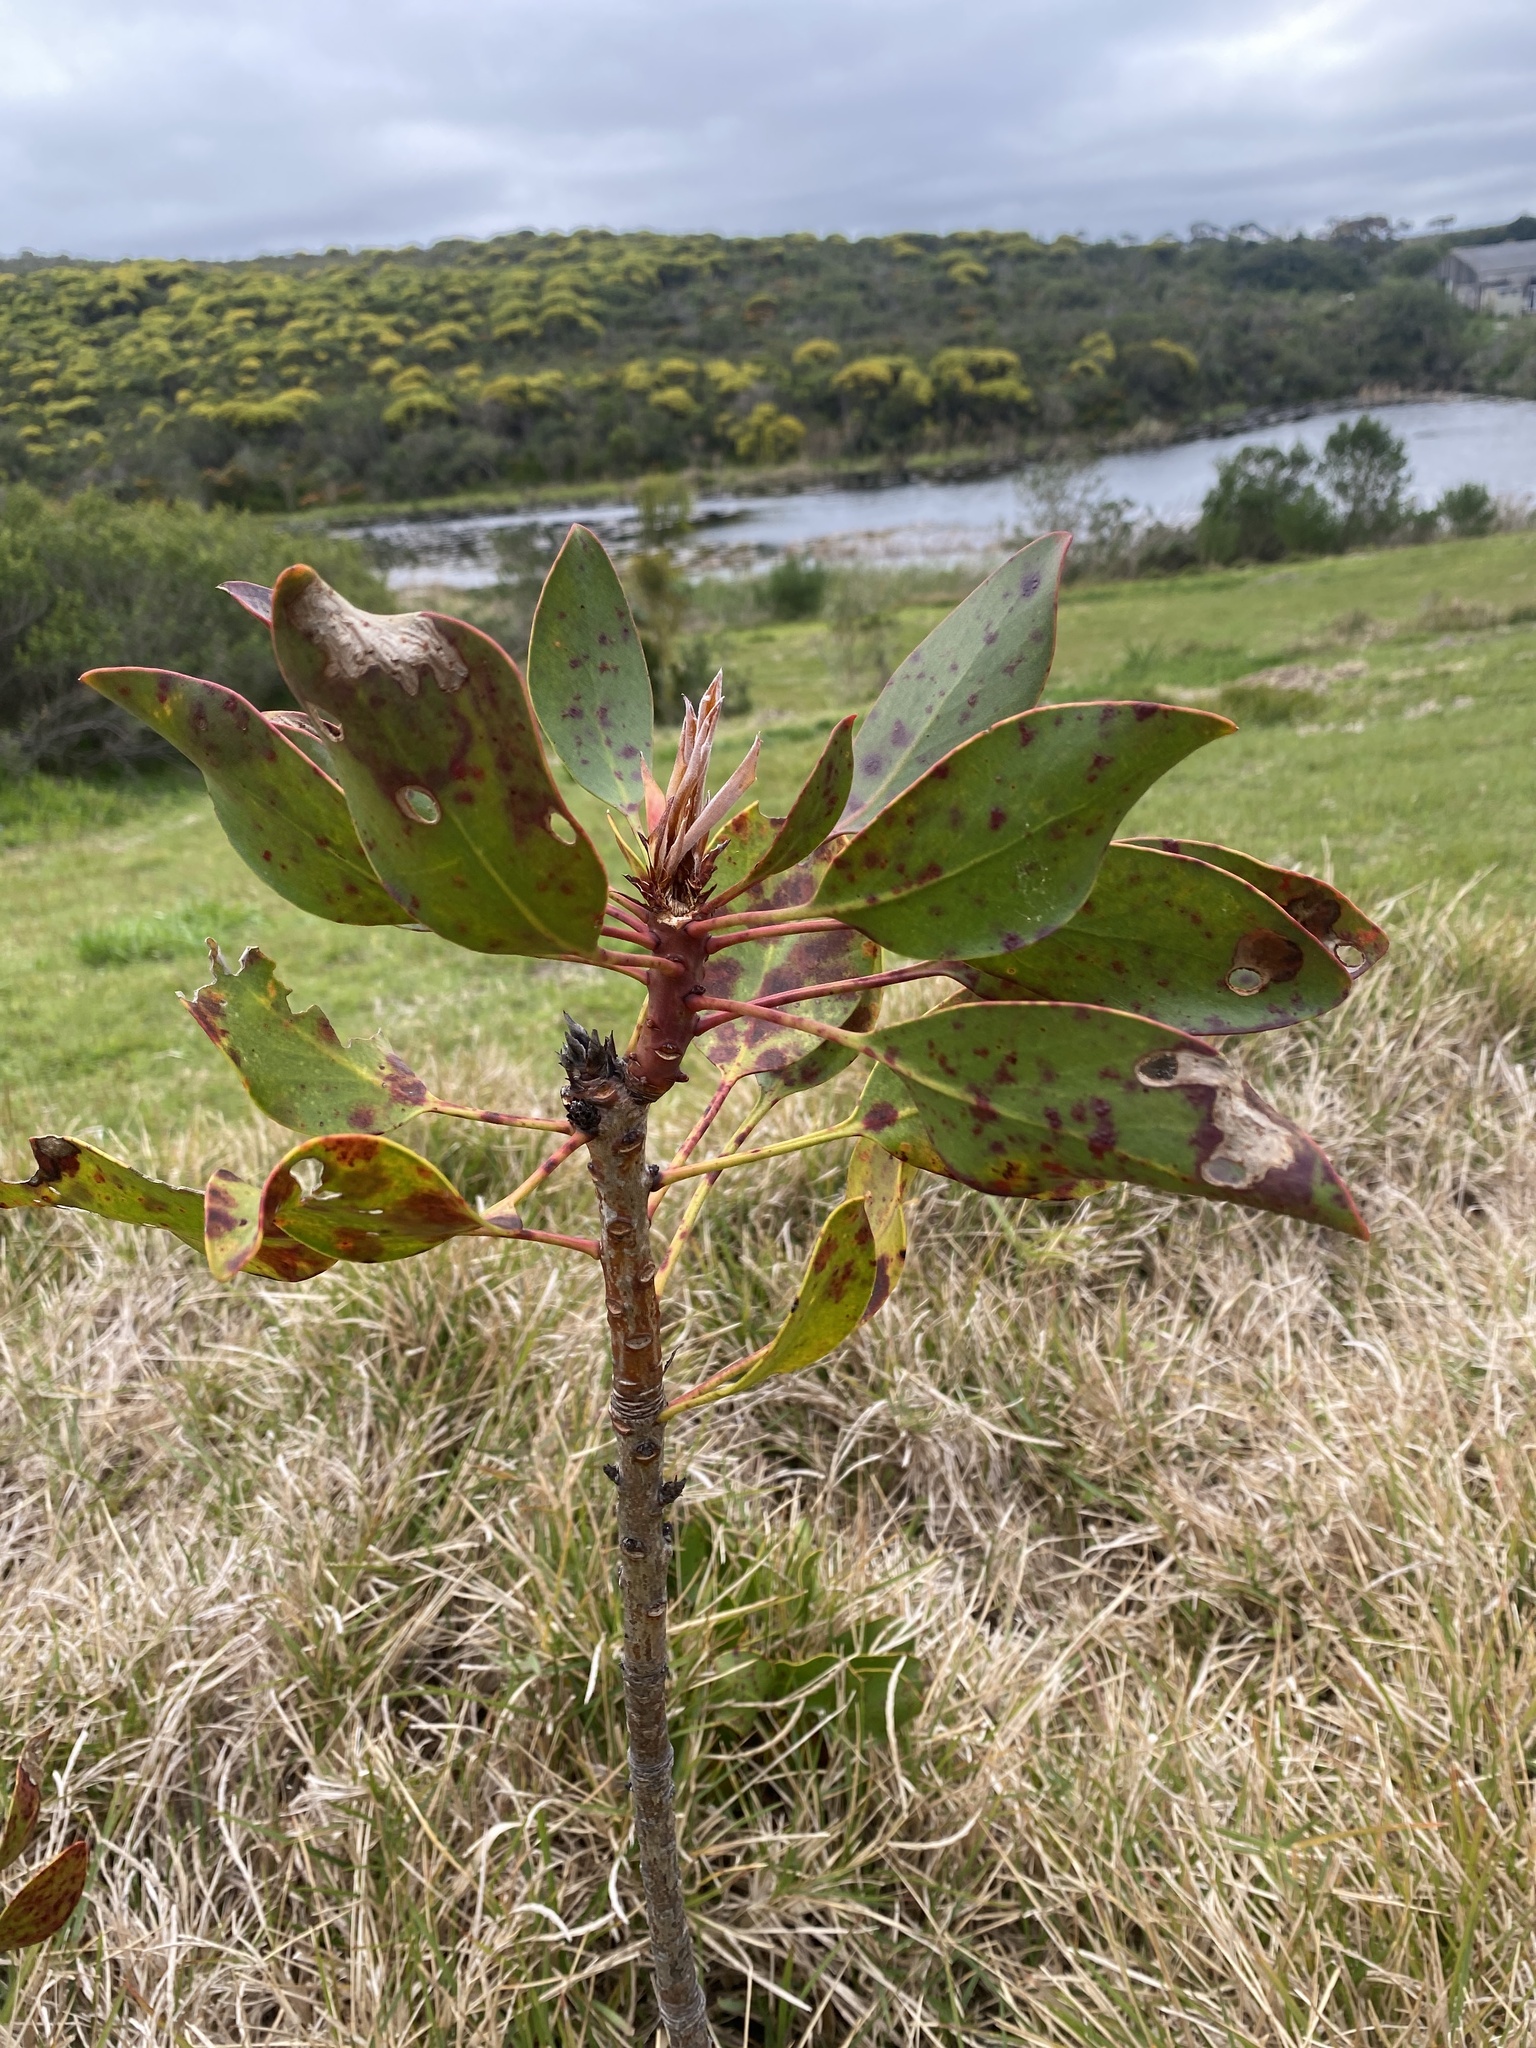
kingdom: Plantae
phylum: Tracheophyta
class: Magnoliopsida
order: Proteales
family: Proteaceae
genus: Protea
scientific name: Protea cynaroides
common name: King protea
